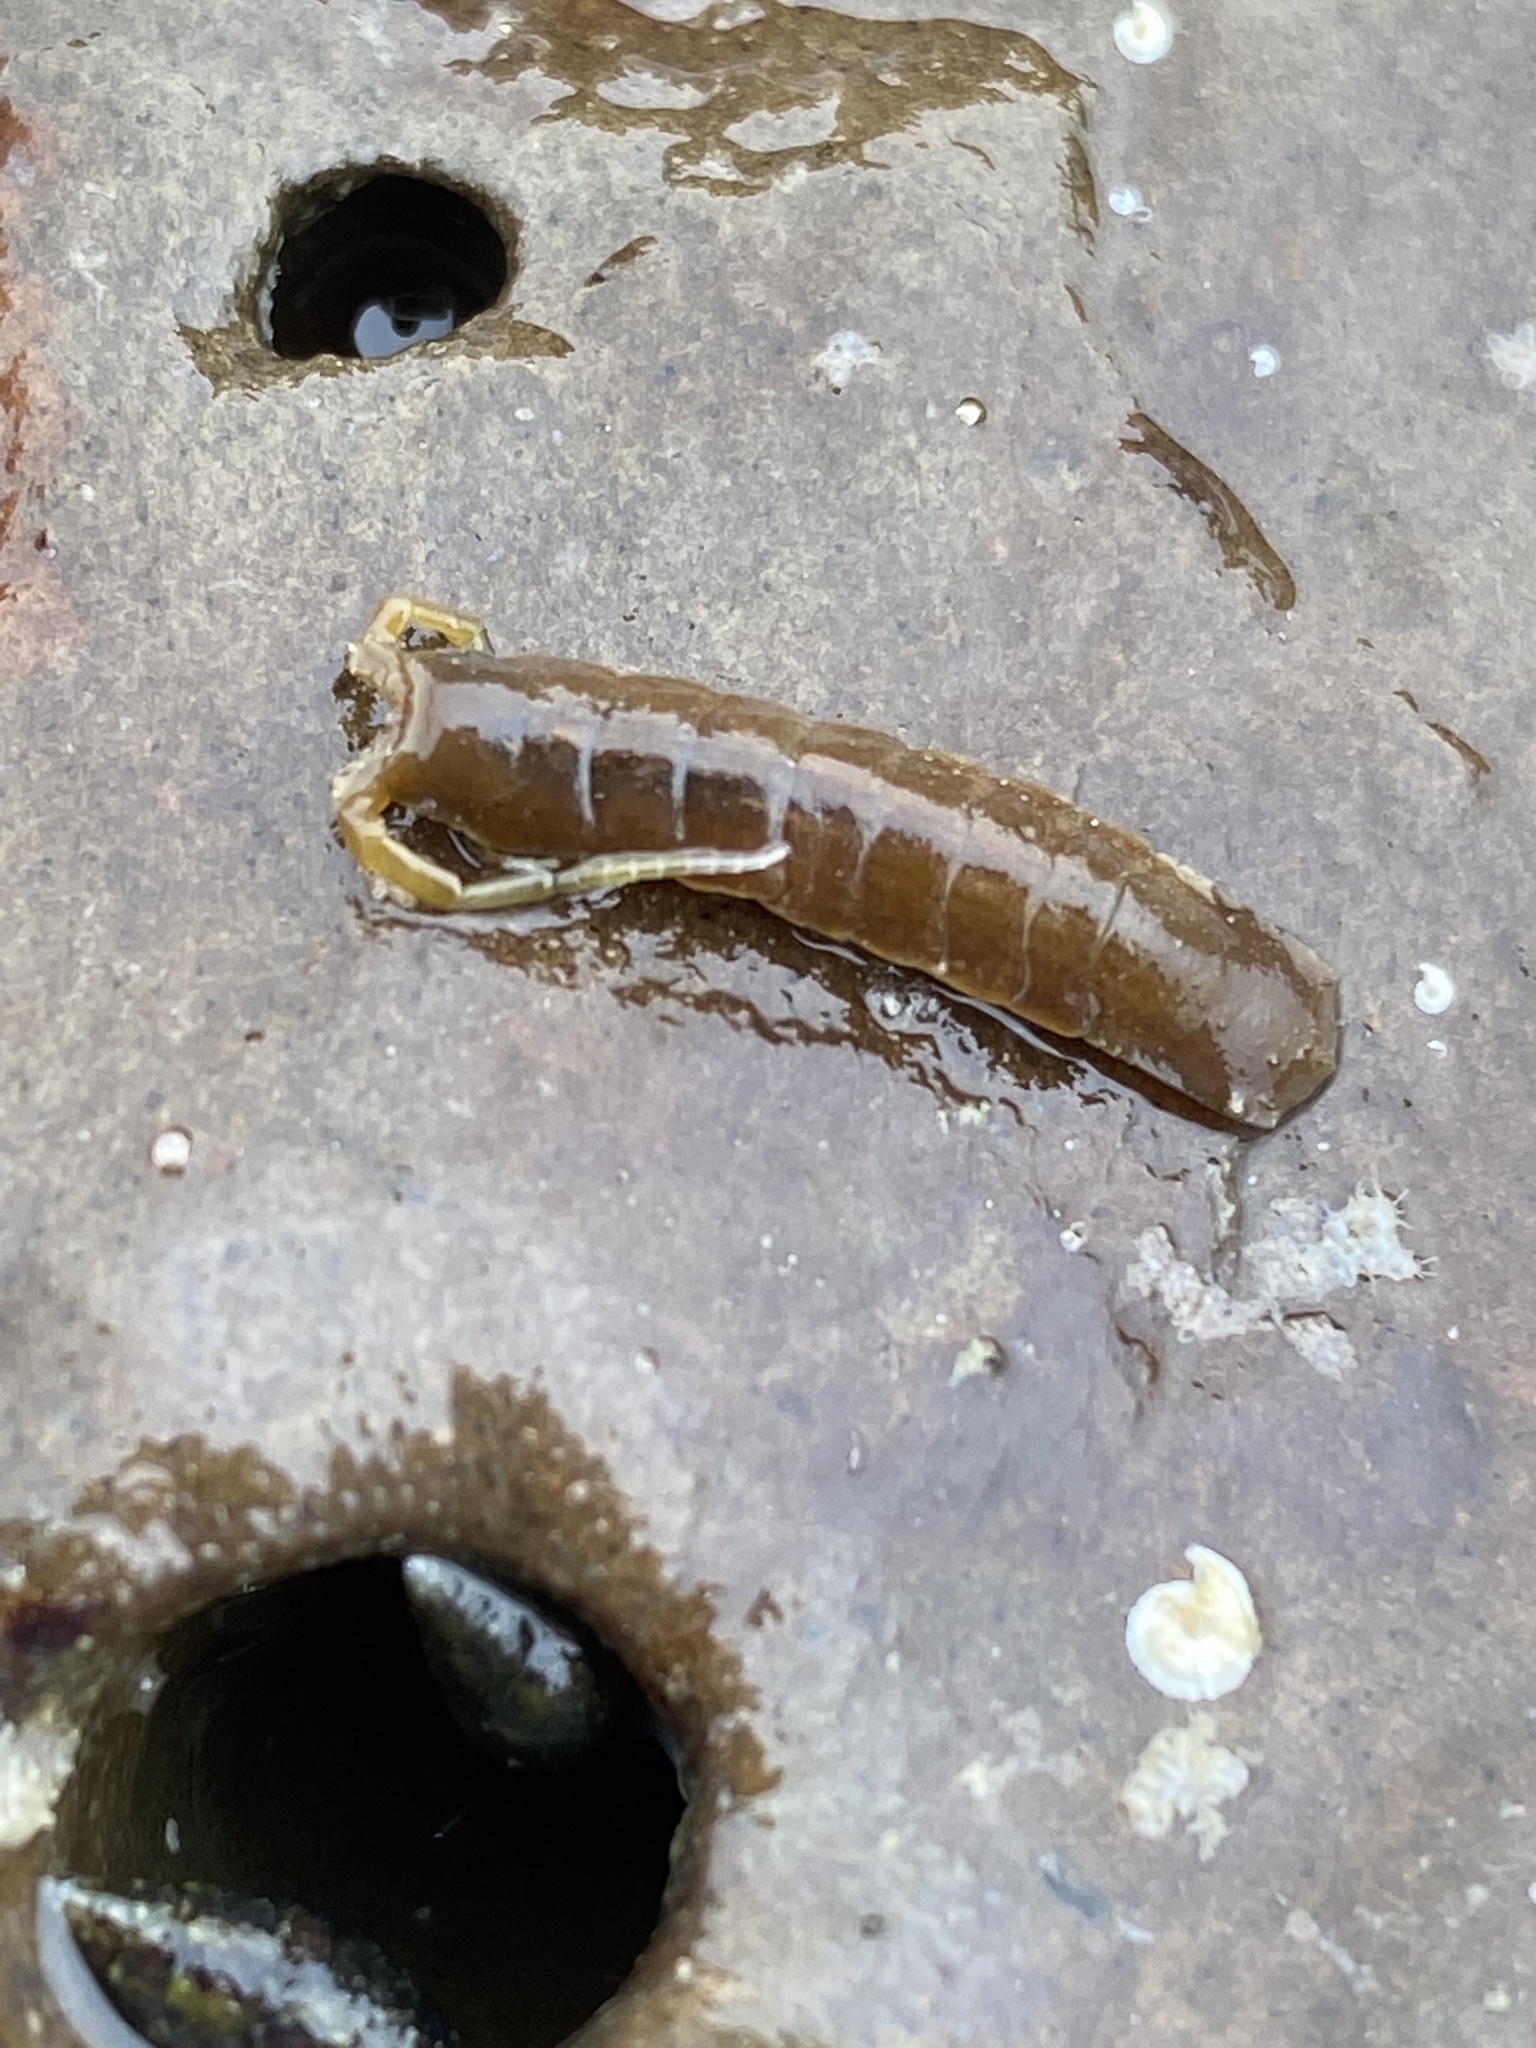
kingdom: Animalia
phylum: Arthropoda
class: Malacostraca
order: Isopoda
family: Idoteidae
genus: Idotea
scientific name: Idotea urotoma
